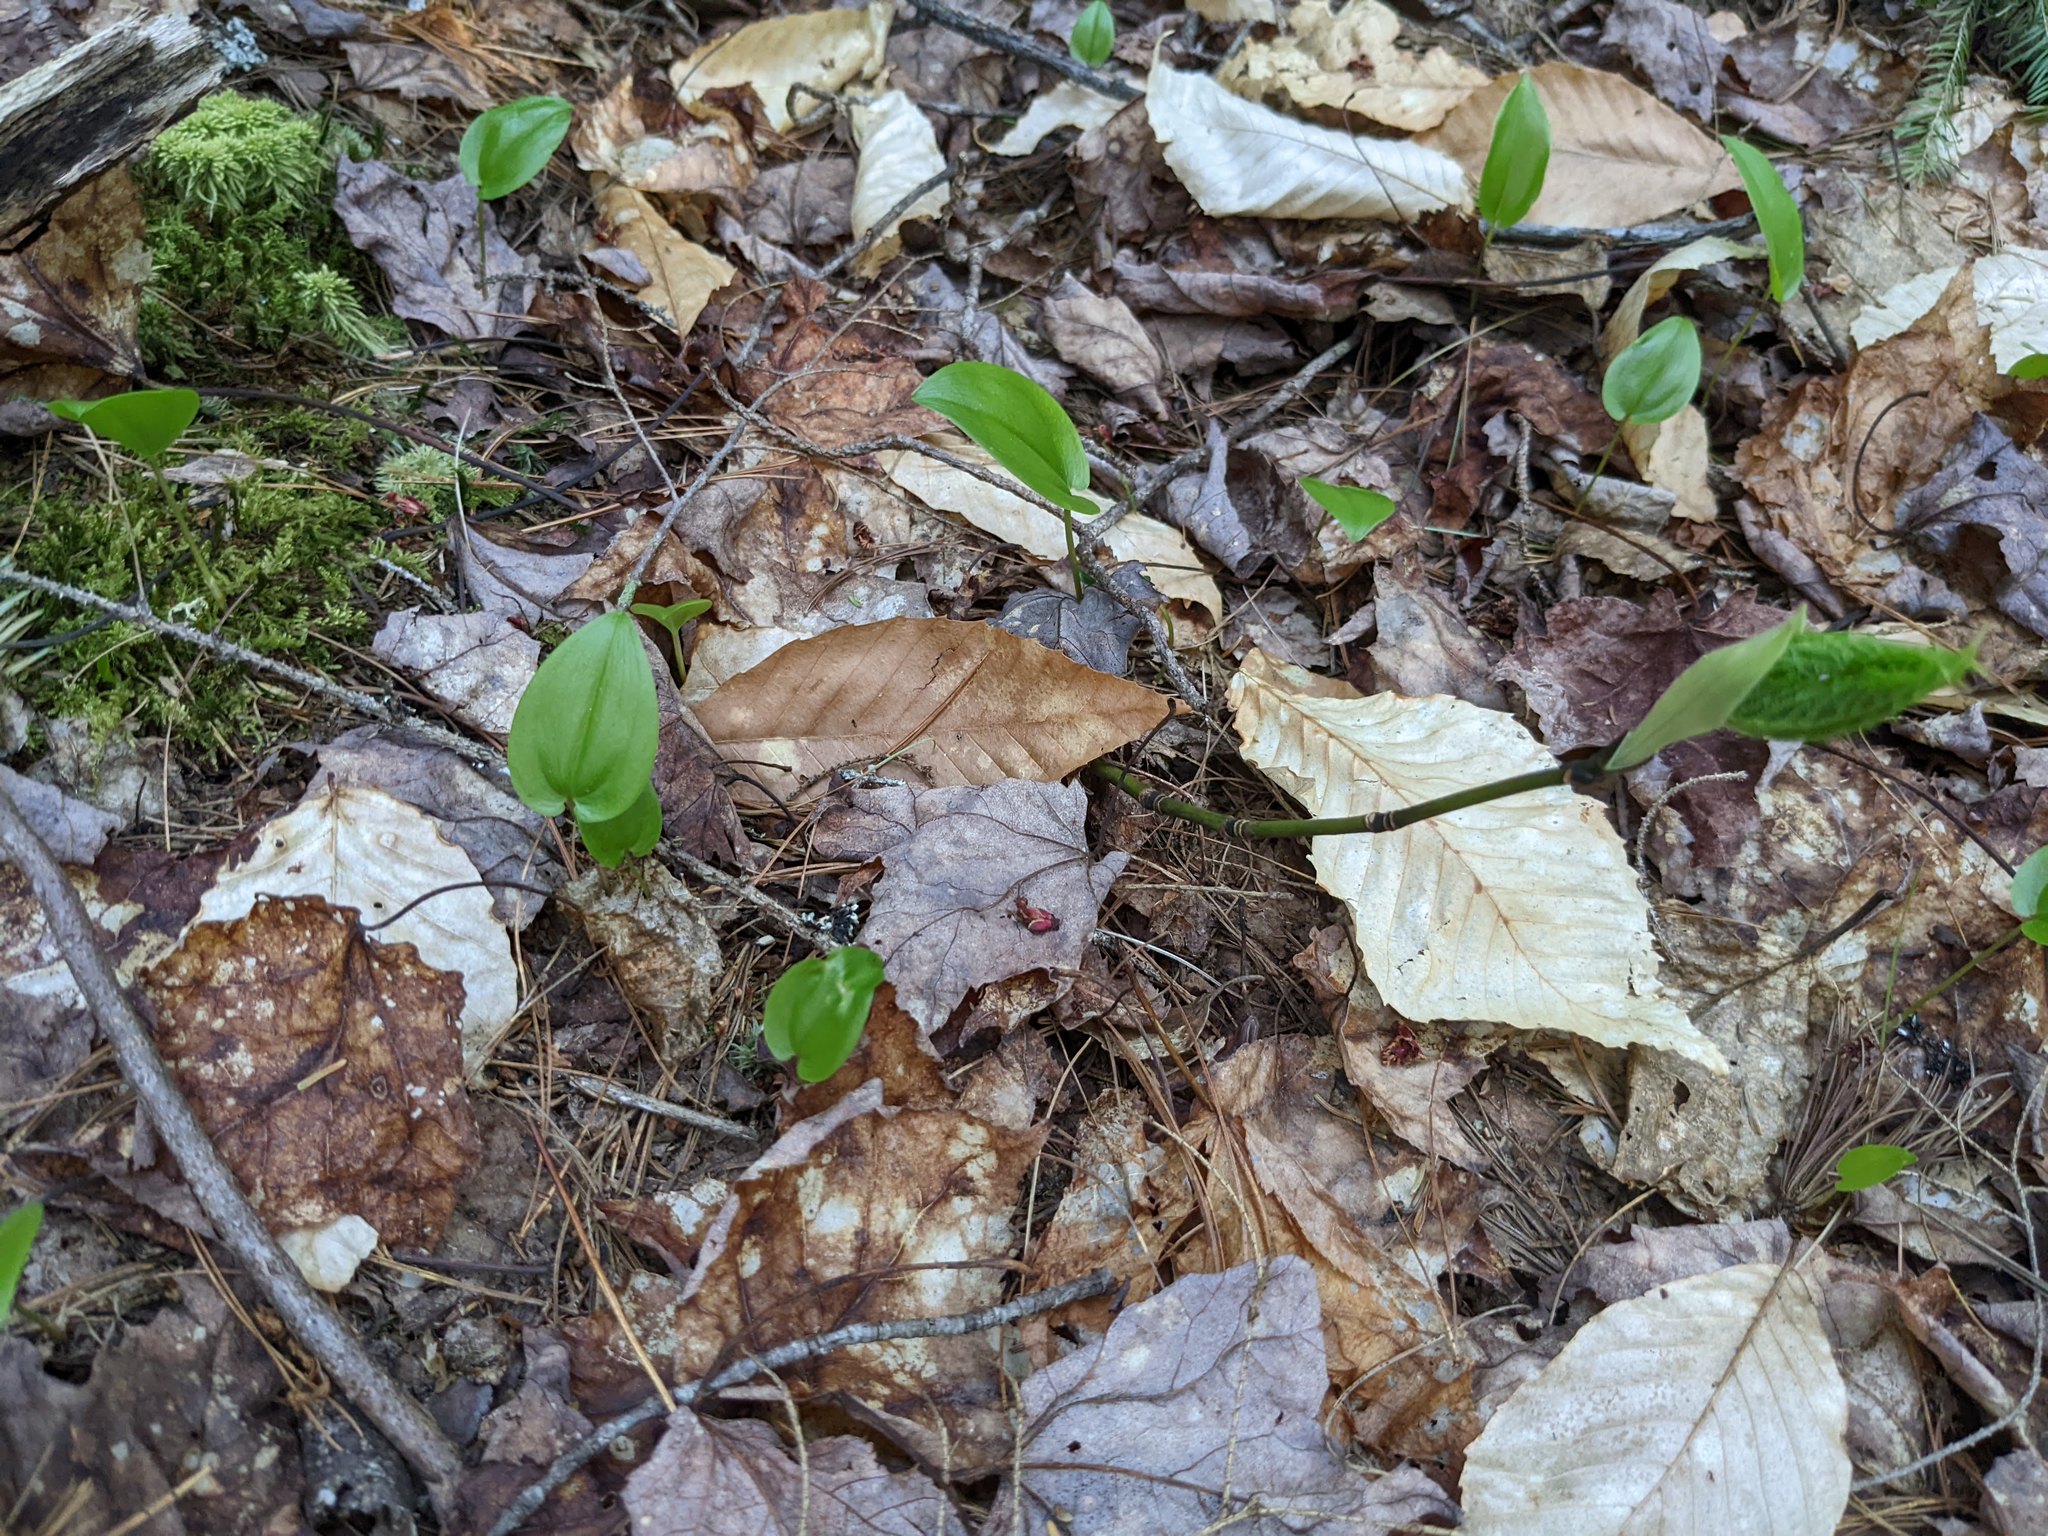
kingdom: Plantae
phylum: Tracheophyta
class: Magnoliopsida
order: Fagales
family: Fagaceae
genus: Fagus
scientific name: Fagus grandifolia
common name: American beech
